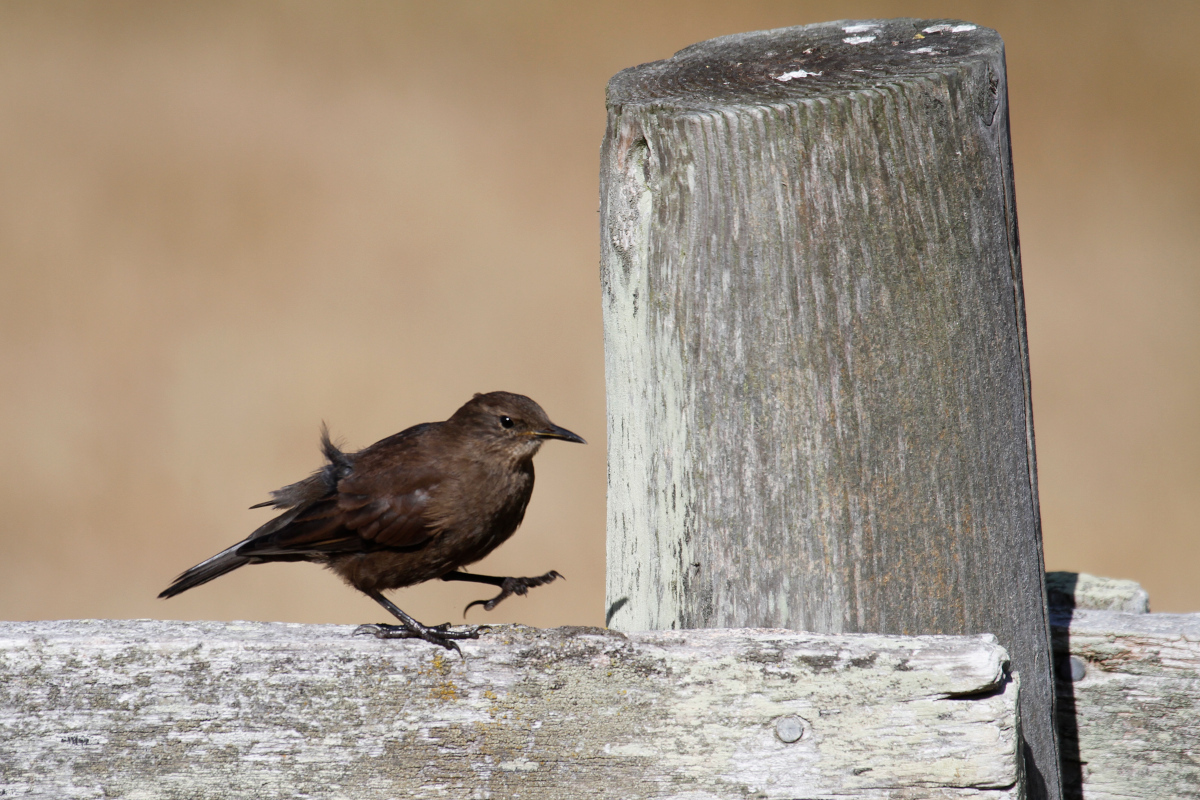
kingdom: Animalia
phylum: Chordata
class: Aves
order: Passeriformes
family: Furnariidae
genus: Cinclodes
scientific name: Cinclodes antarcticus
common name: Blackish cinclodes
